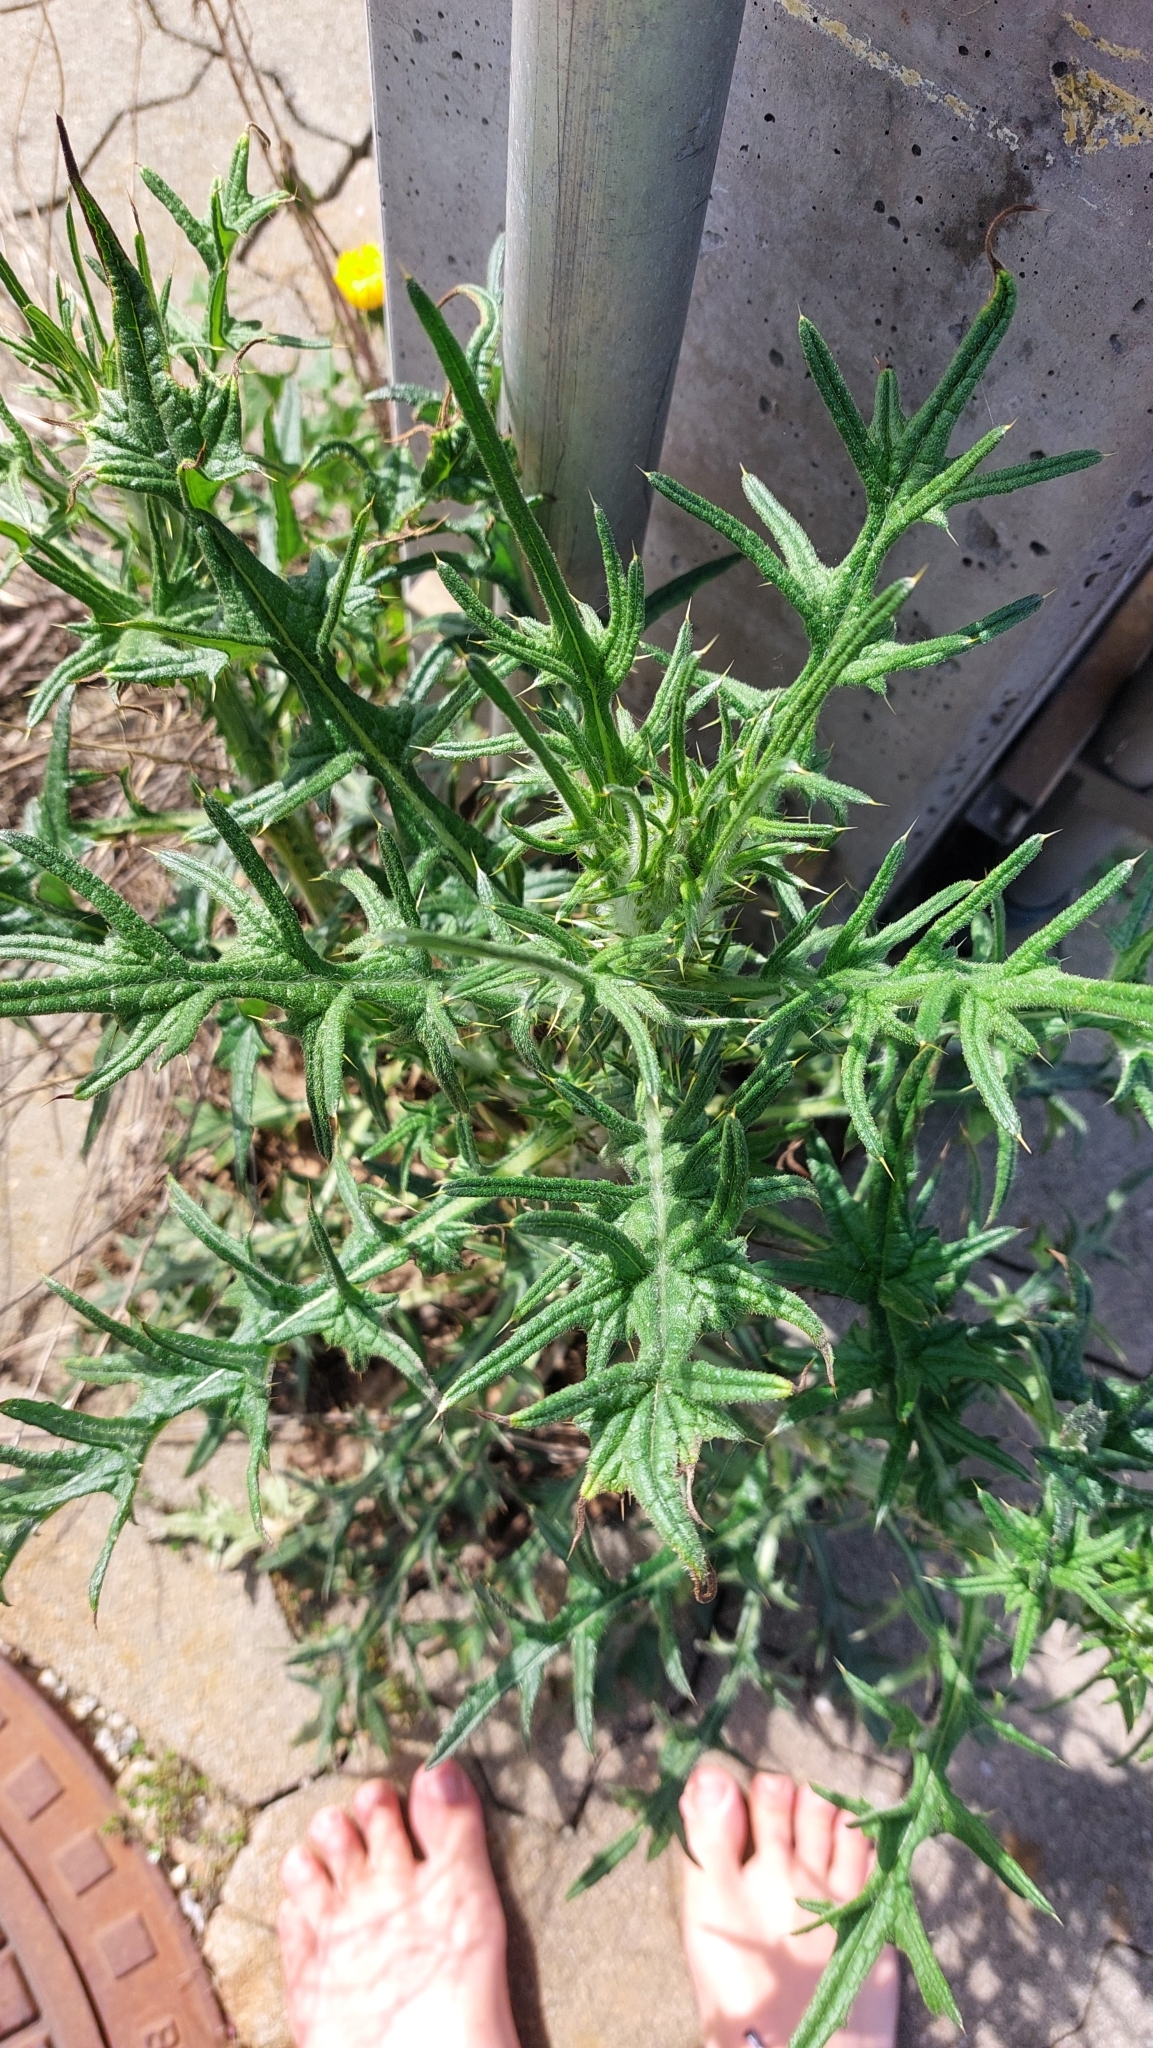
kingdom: Plantae
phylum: Tracheophyta
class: Magnoliopsida
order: Asterales
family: Asteraceae
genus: Cirsium
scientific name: Cirsium vulgare
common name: Bull thistle
